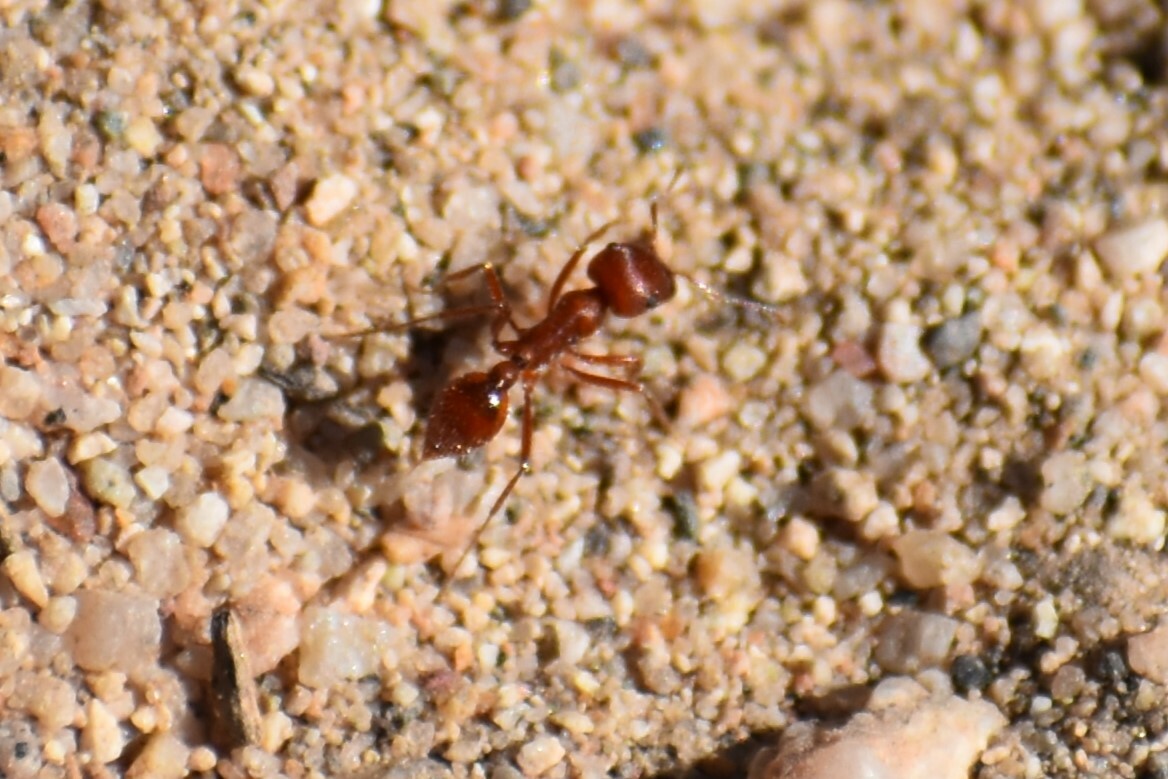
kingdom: Animalia
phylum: Arthropoda
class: Insecta
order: Hymenoptera
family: Formicidae
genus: Pogonomyrmex
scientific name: Pogonomyrmex
